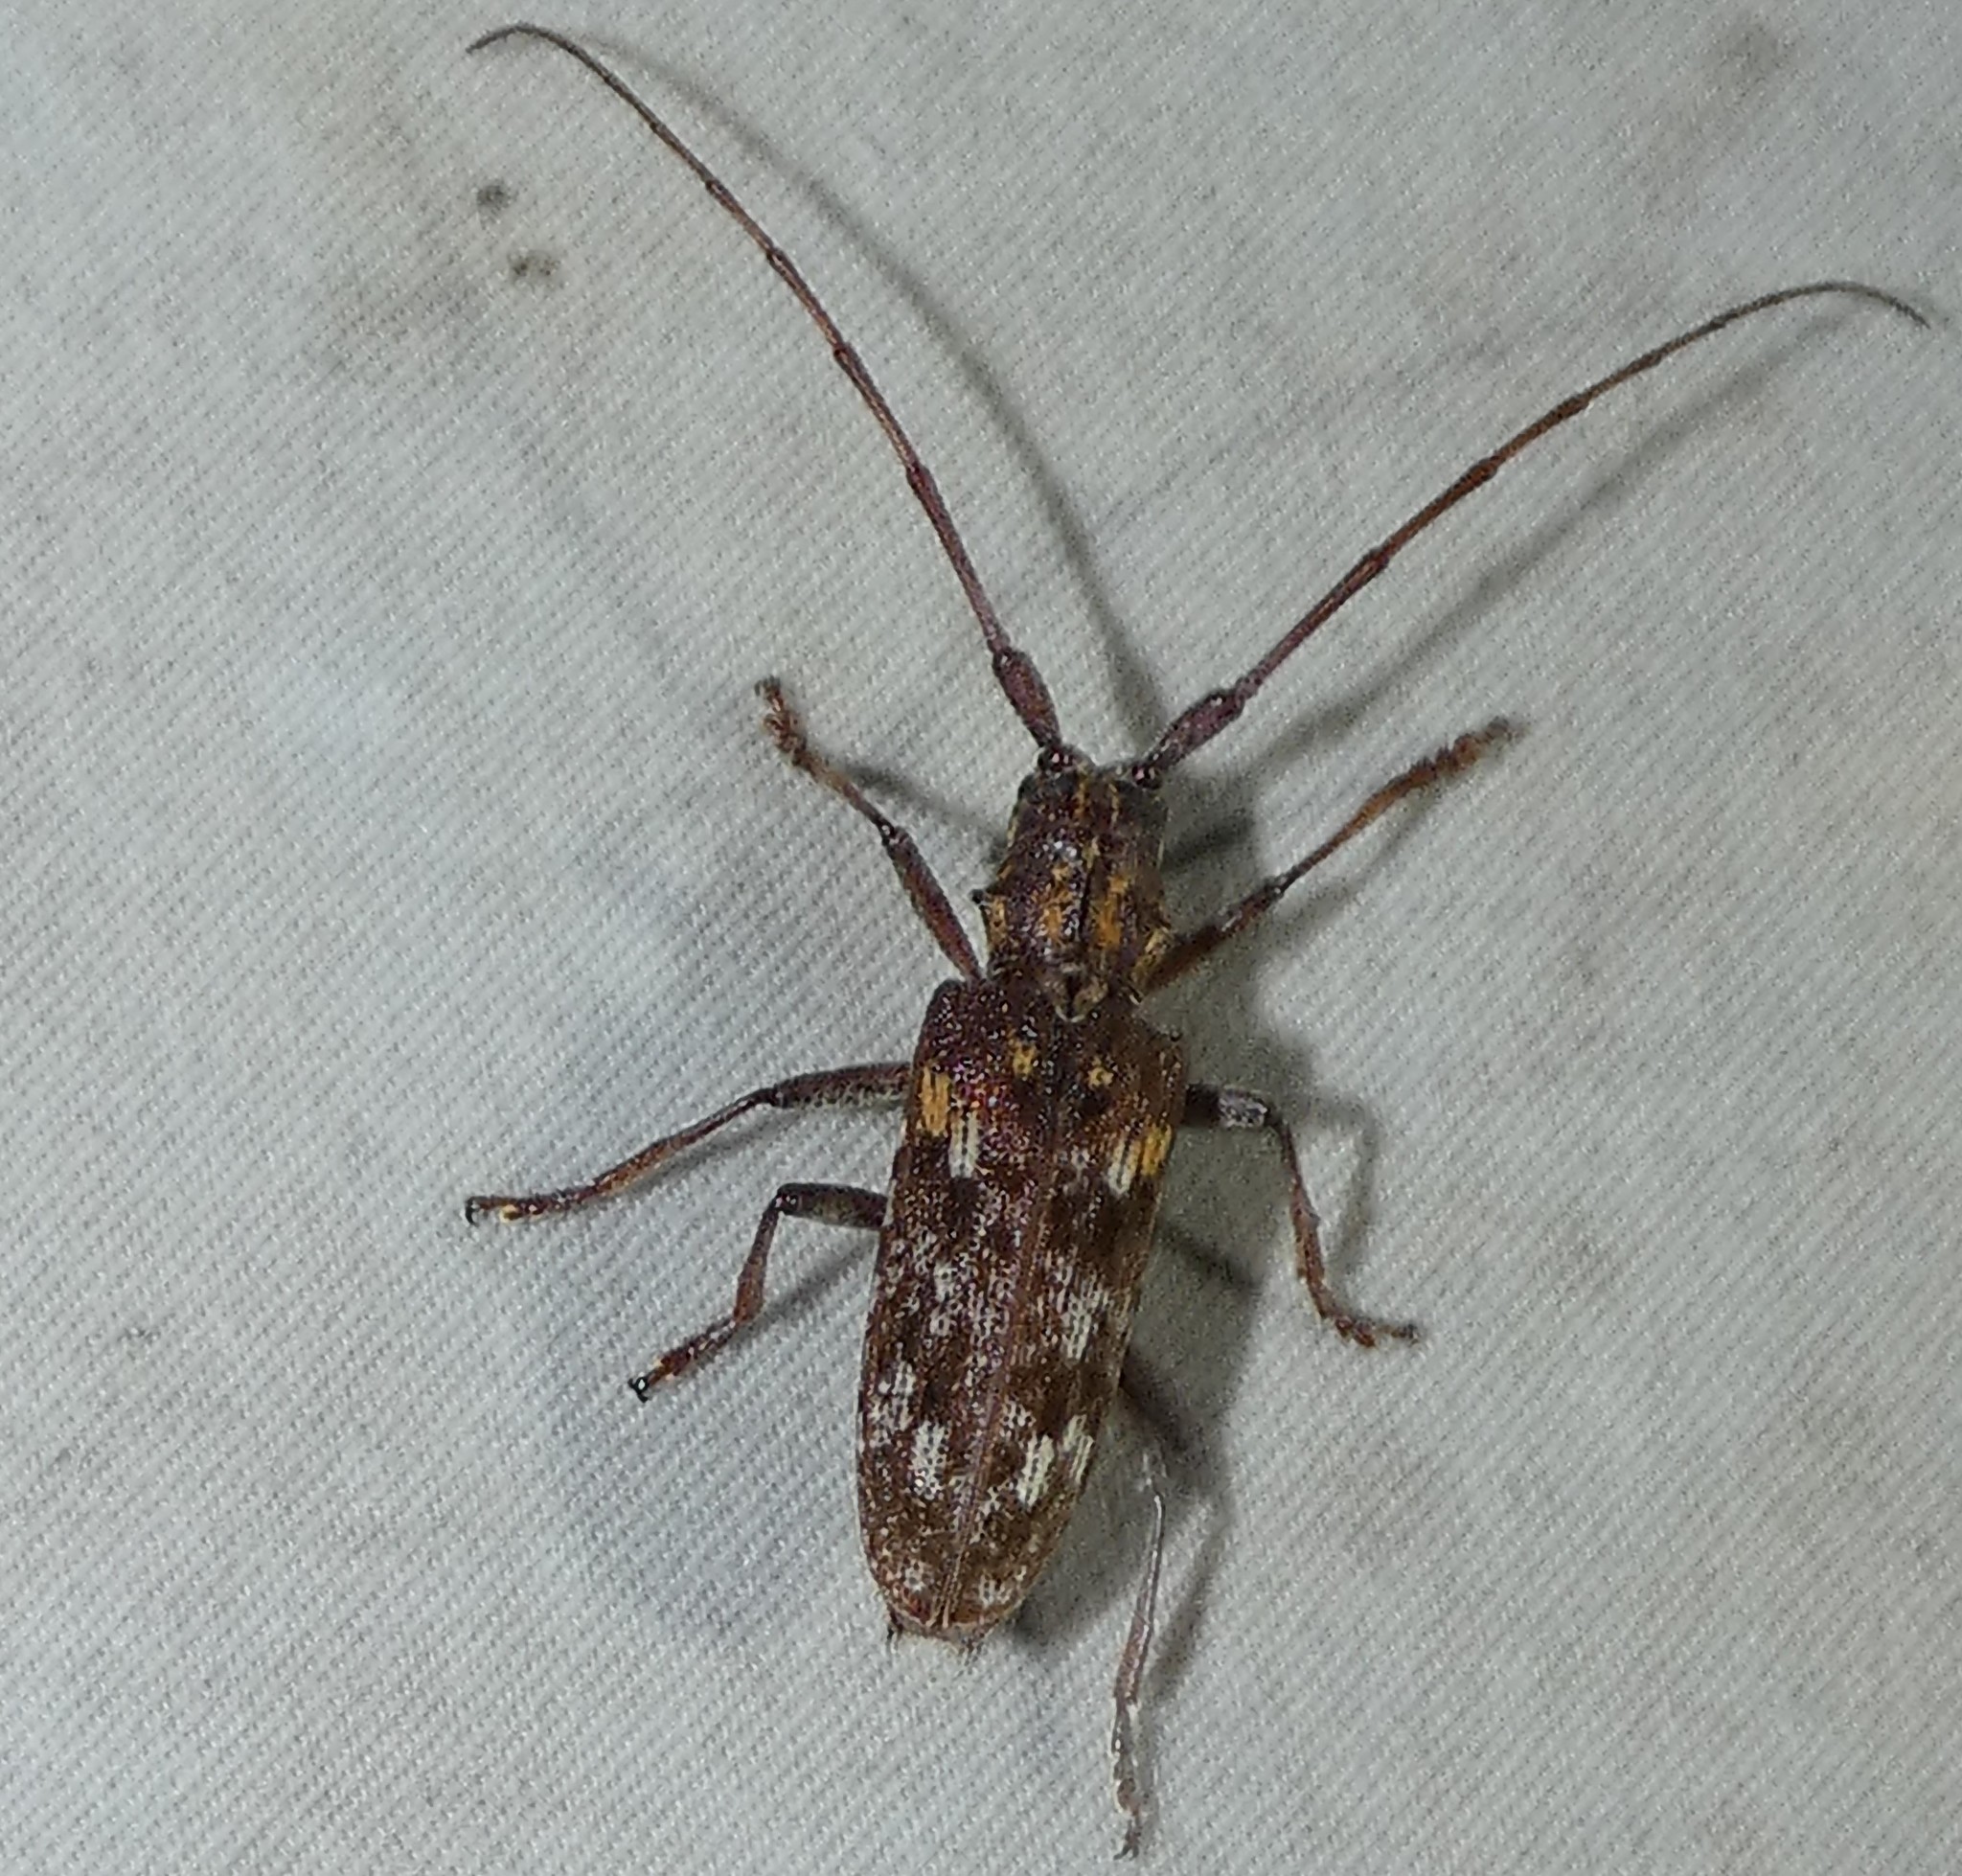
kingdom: Animalia
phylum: Arthropoda
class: Insecta
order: Coleoptera
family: Cerambycidae
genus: Monochamus
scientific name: Monochamus carolinensis
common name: Carolina pine sawyer
